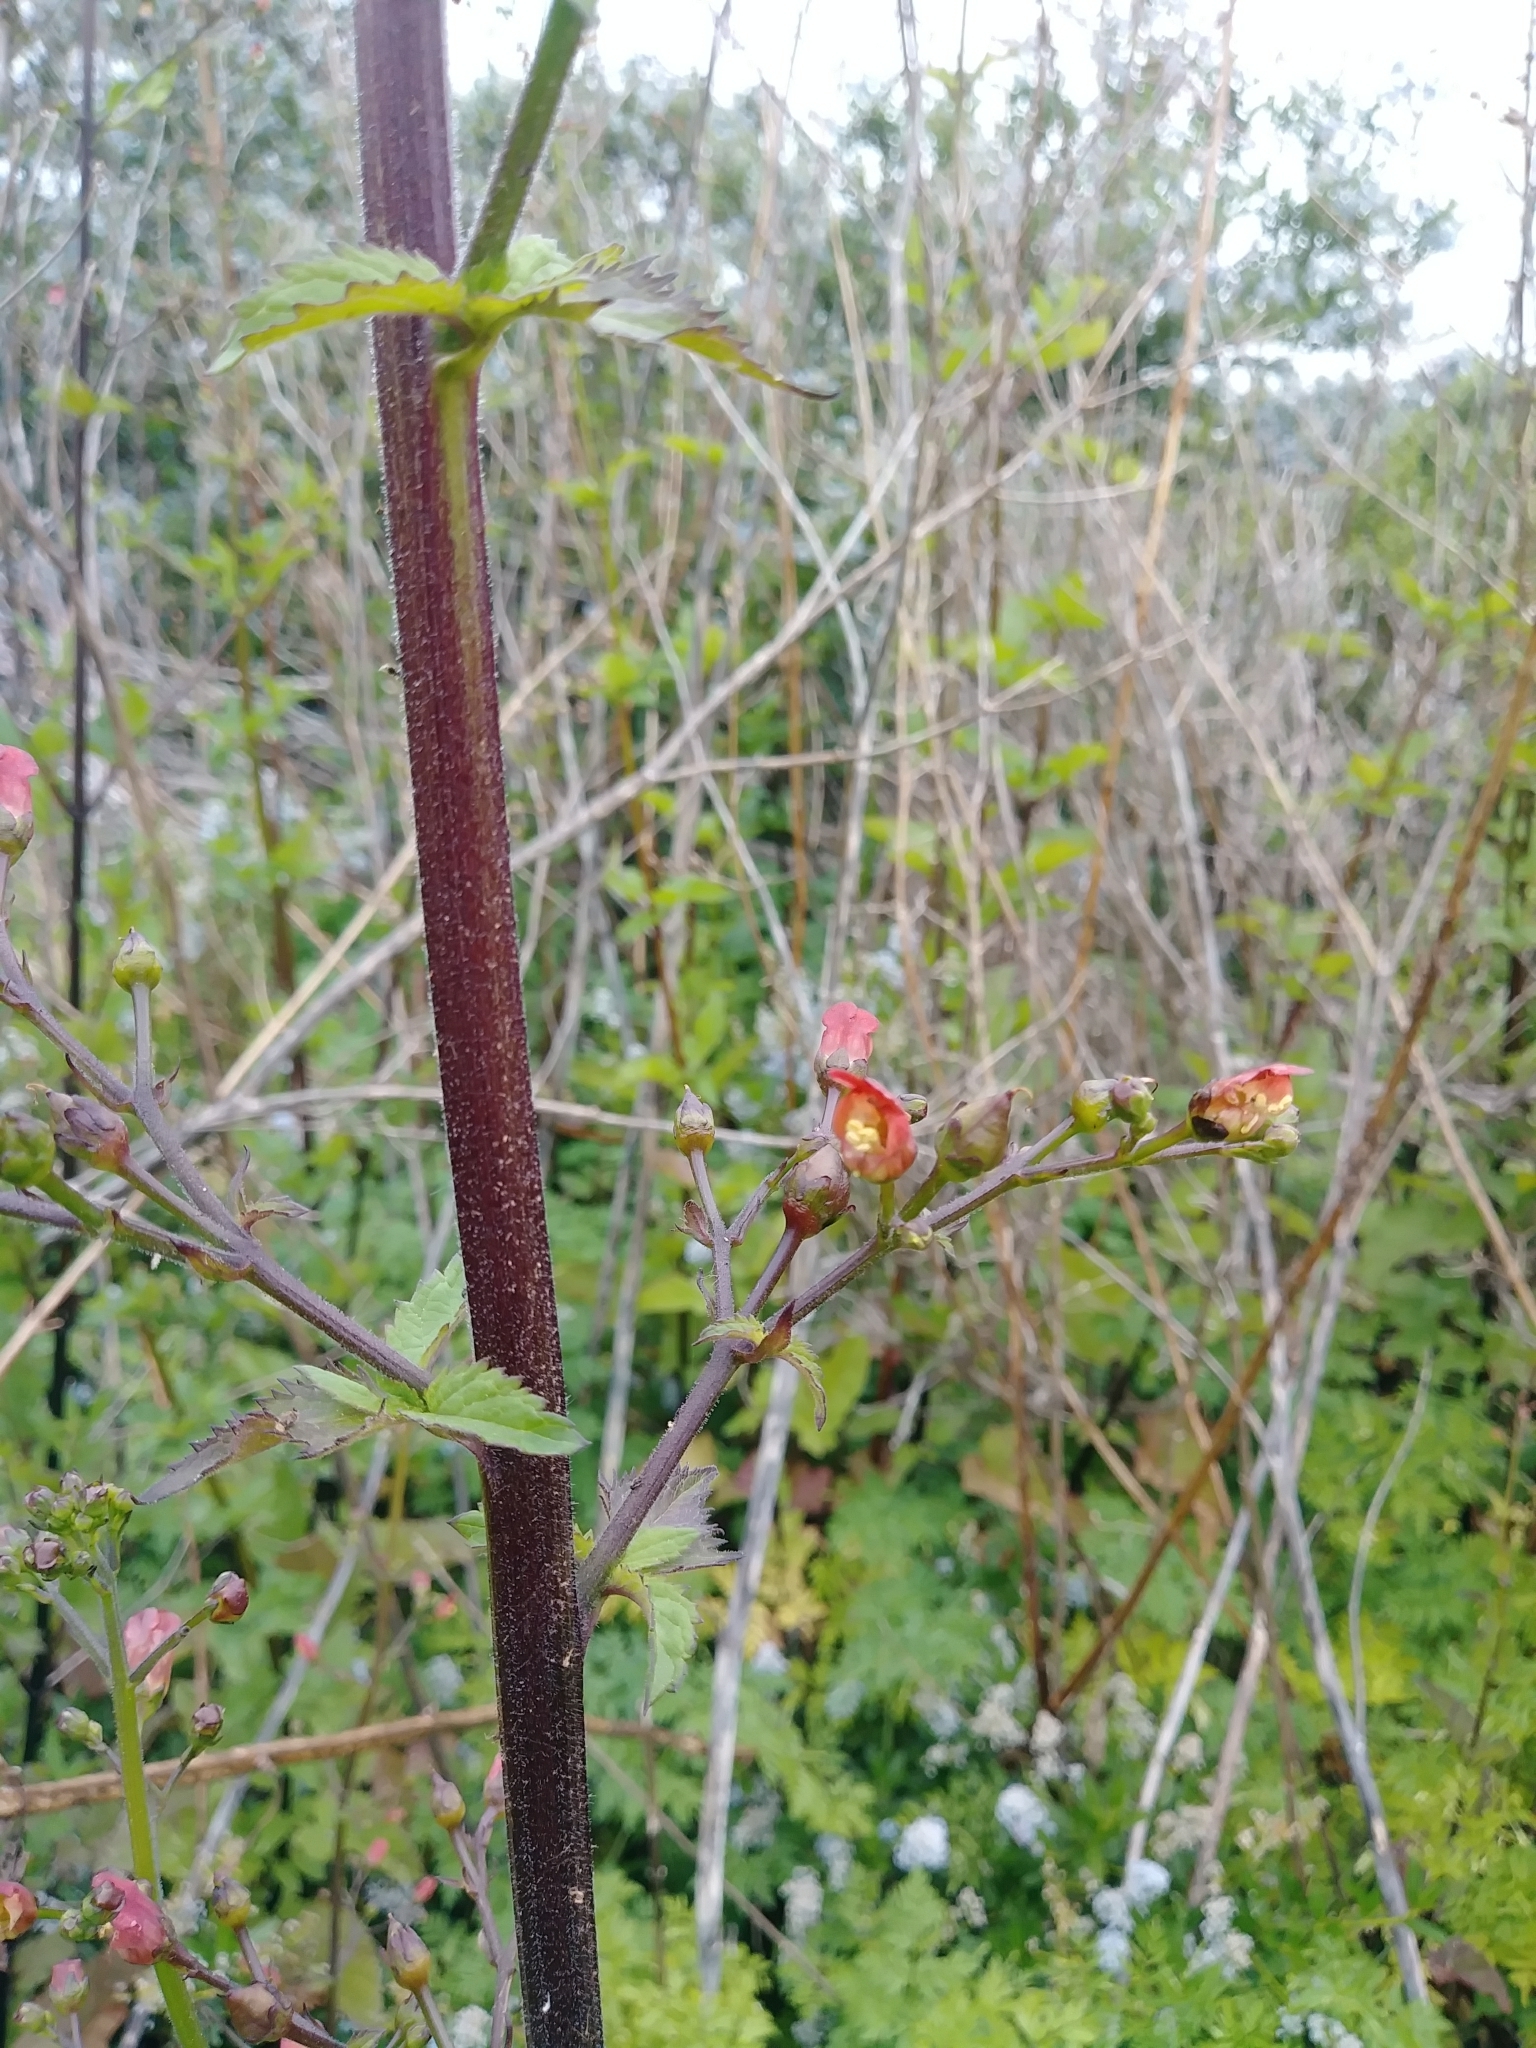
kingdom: Plantae
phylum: Tracheophyta
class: Magnoliopsida
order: Lamiales
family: Scrophulariaceae
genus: Scrophularia
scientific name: Scrophularia californica
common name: California figwort
